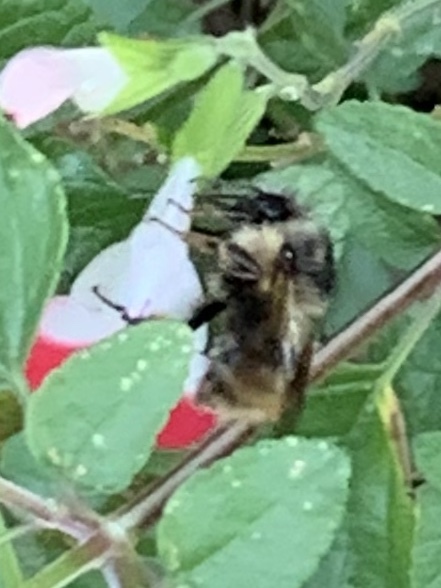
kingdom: Animalia
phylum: Arthropoda
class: Insecta
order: Hymenoptera
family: Apidae
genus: Bombus
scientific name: Bombus mixtus
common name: Fuzzy-horned bumble bee
